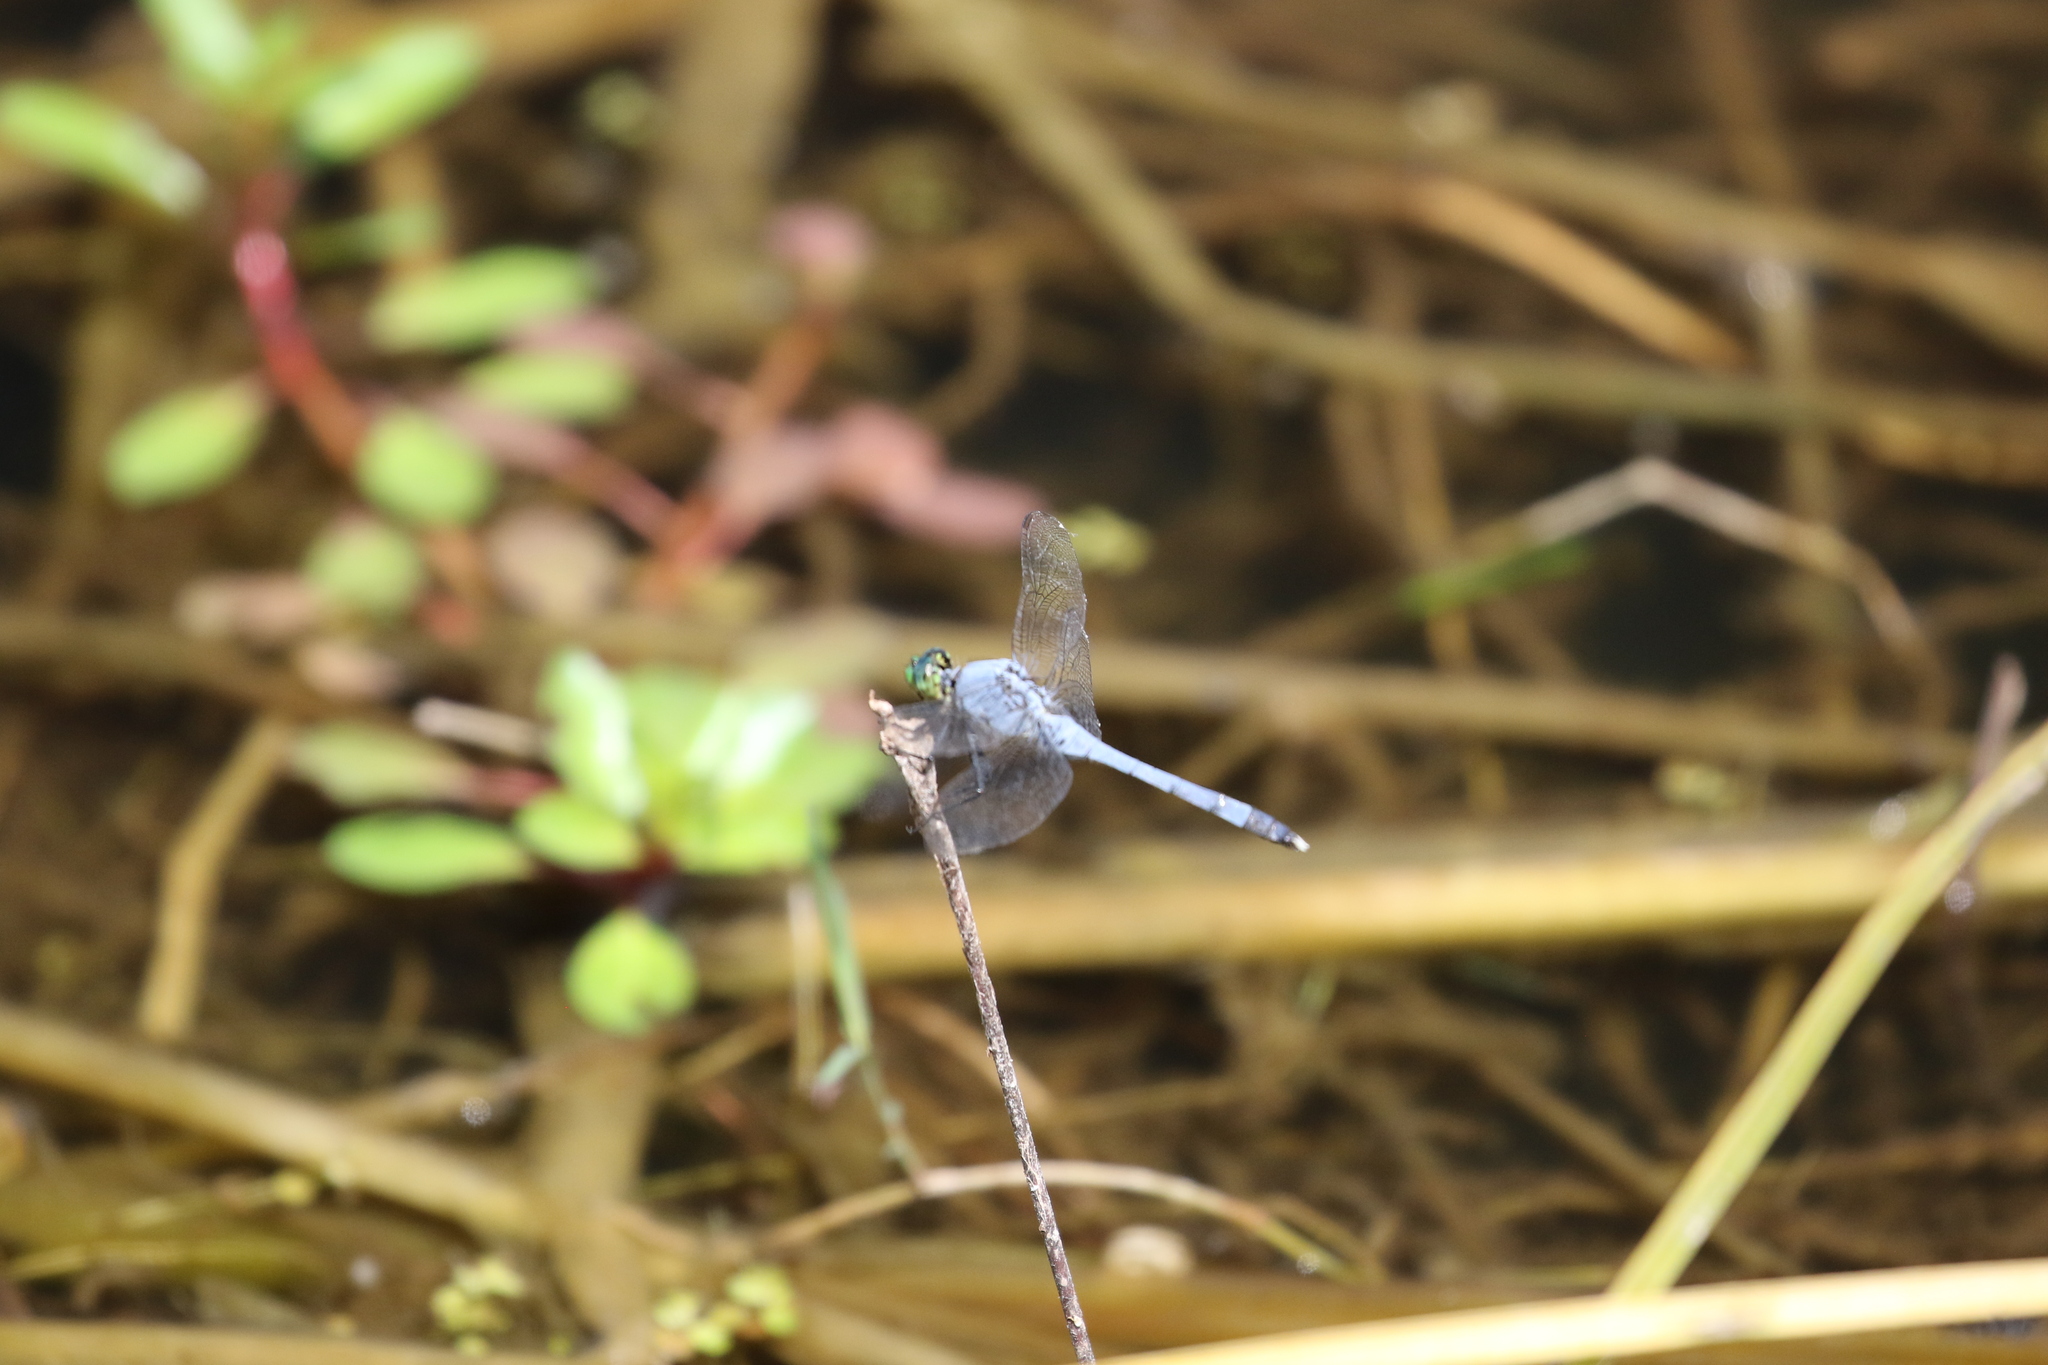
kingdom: Animalia
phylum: Arthropoda
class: Insecta
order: Odonata
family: Libellulidae
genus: Erythemis
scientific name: Erythemis simplicicollis
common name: Eastern pondhawk
